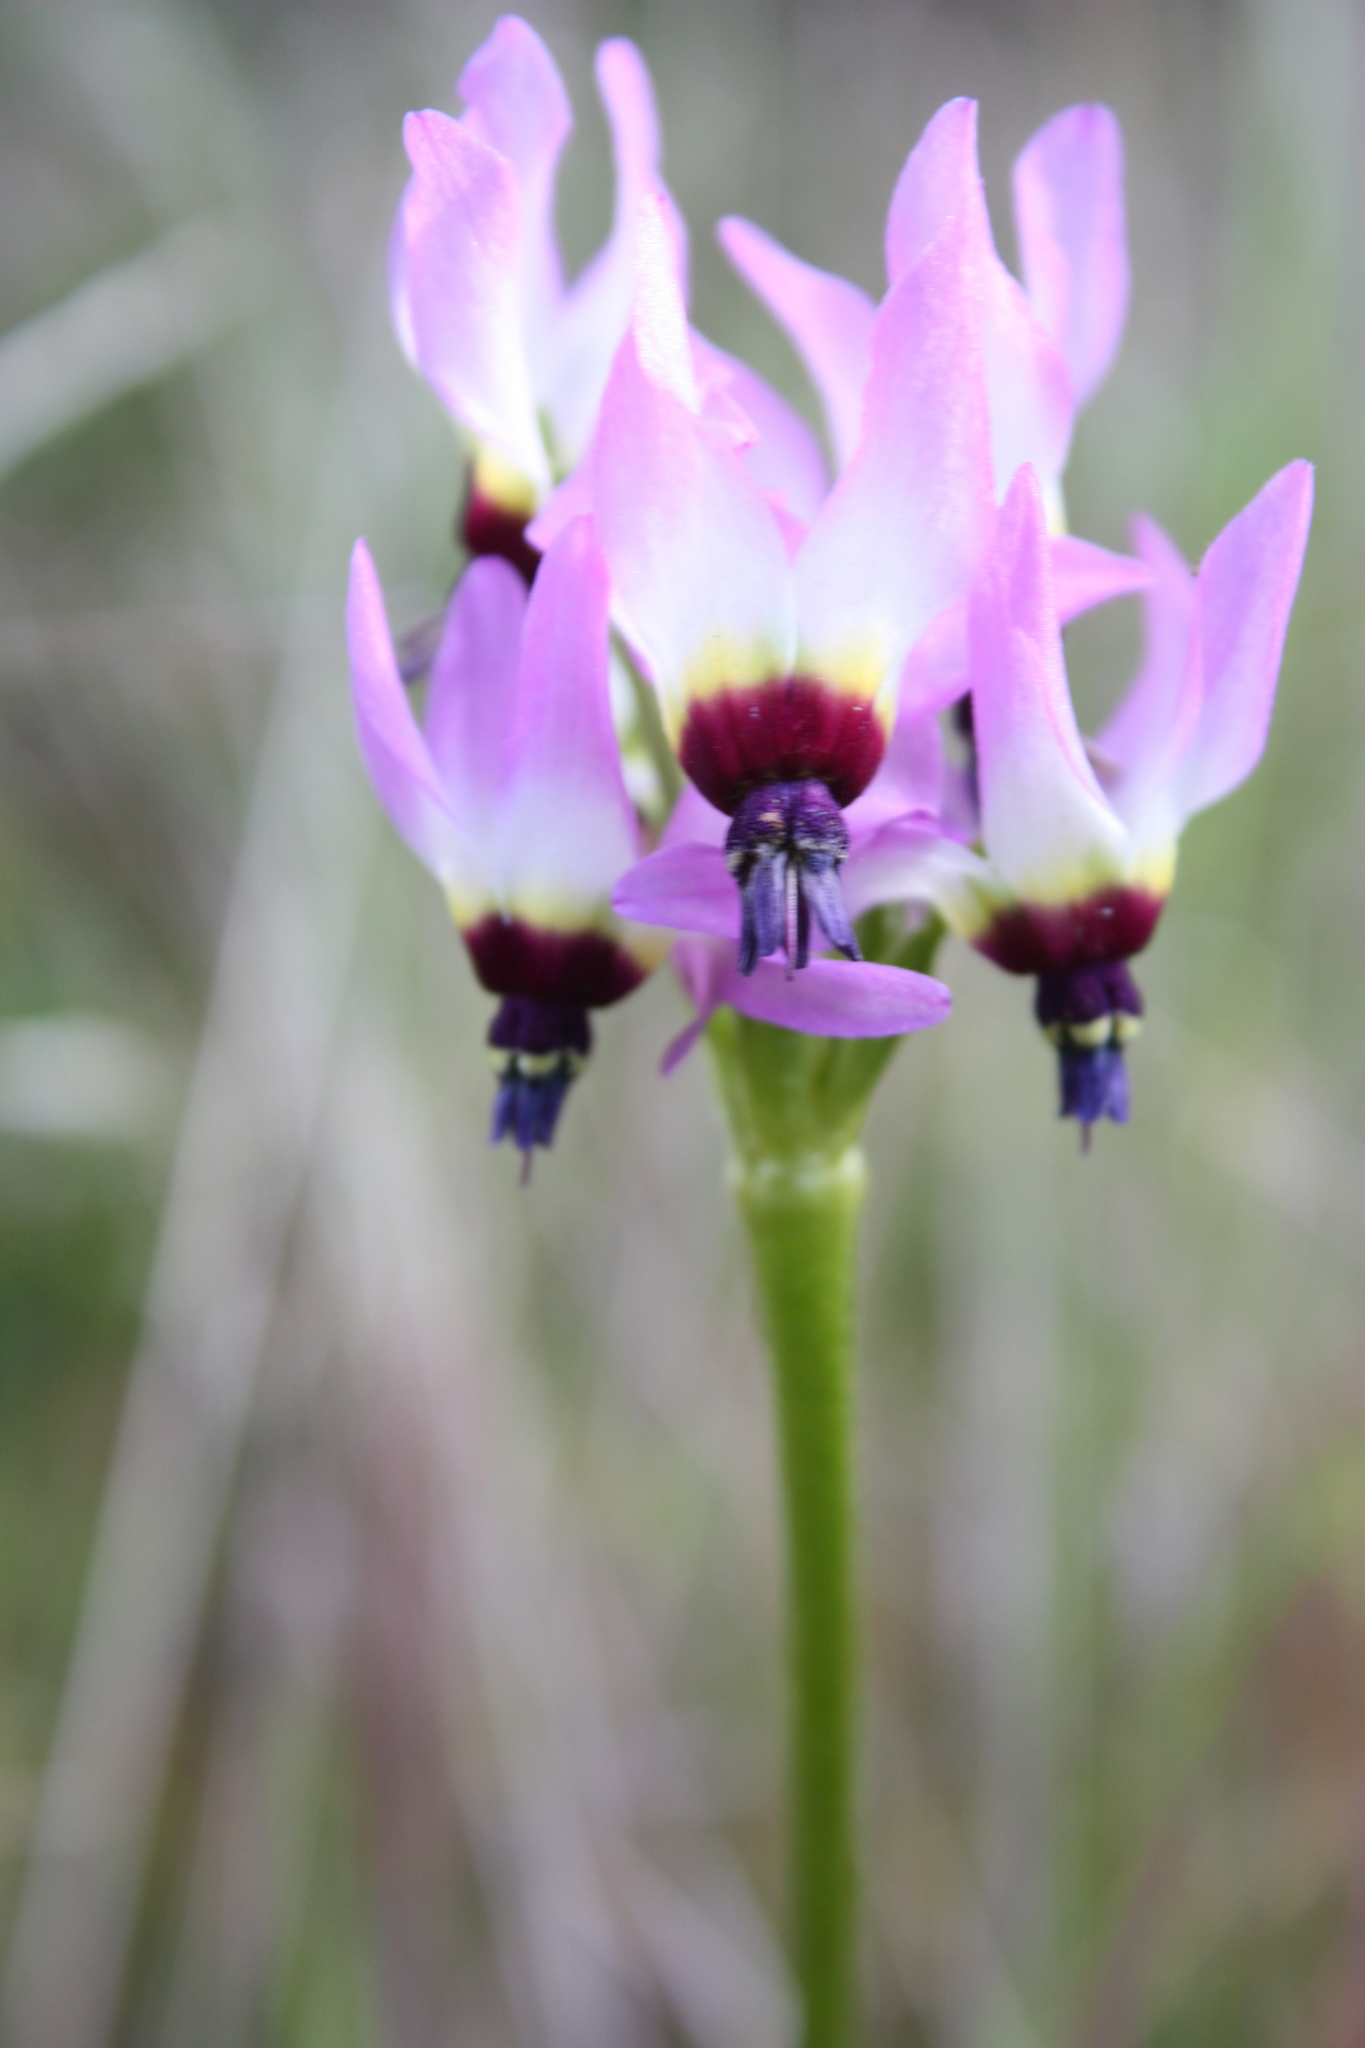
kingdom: Plantae
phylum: Tracheophyta
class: Magnoliopsida
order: Ericales
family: Primulaceae
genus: Dodecatheon
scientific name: Dodecatheon clevelandii
